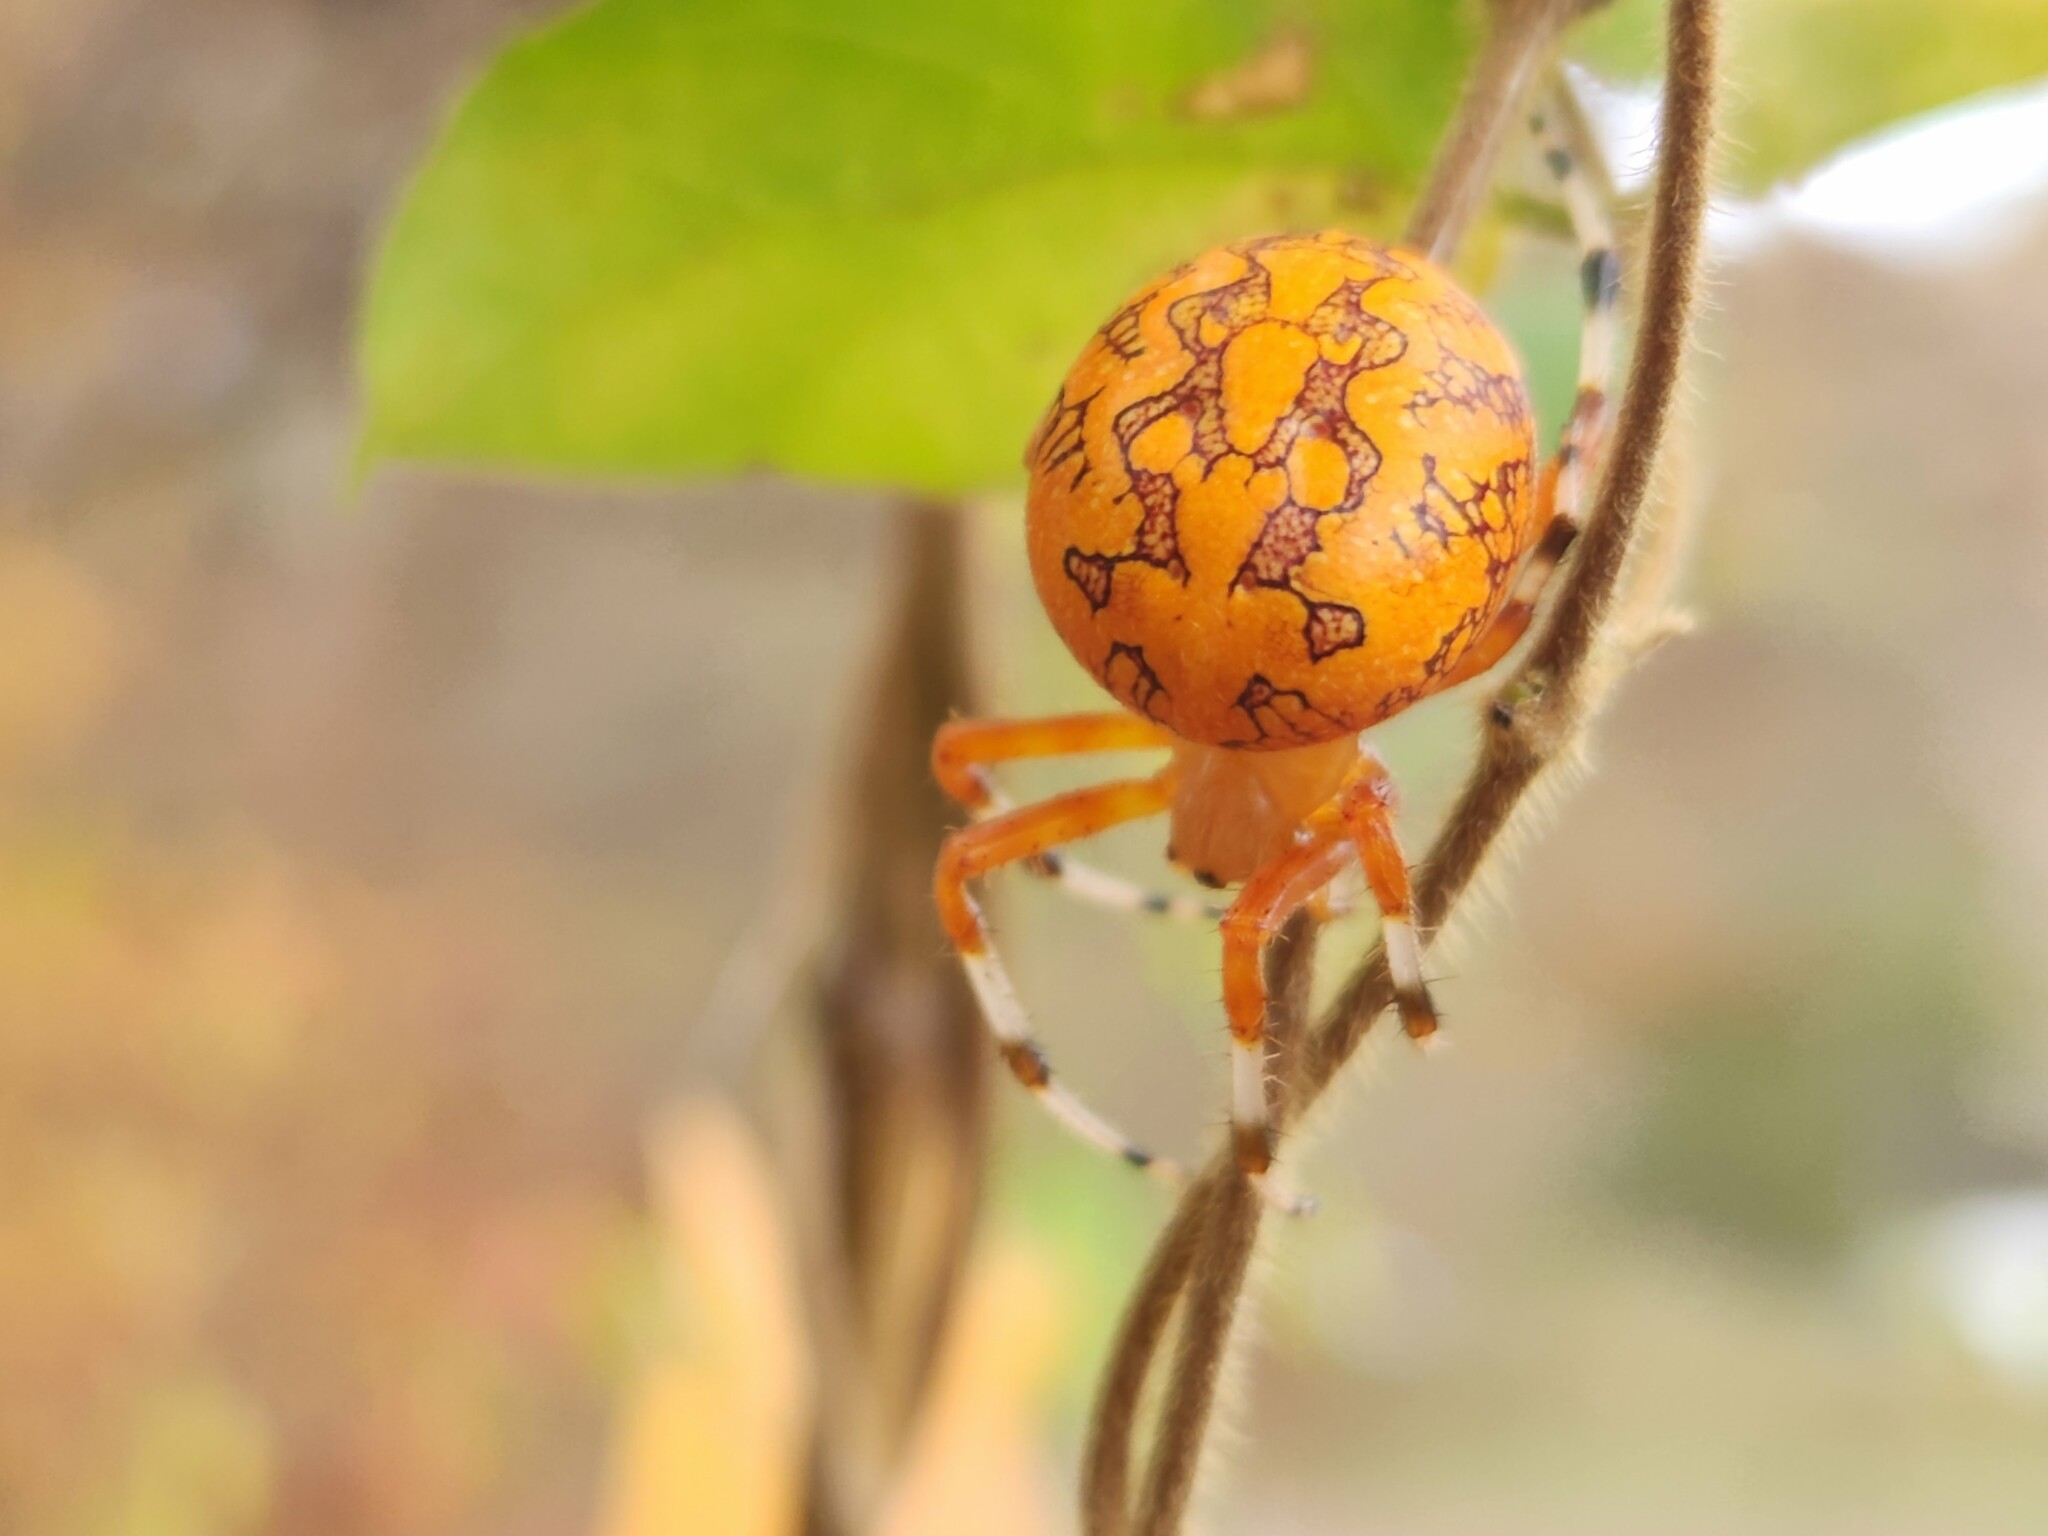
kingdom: Animalia
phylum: Arthropoda
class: Arachnida
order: Araneae
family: Araneidae
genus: Araneus
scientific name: Araneus marmoreus
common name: Marbled orbweaver
